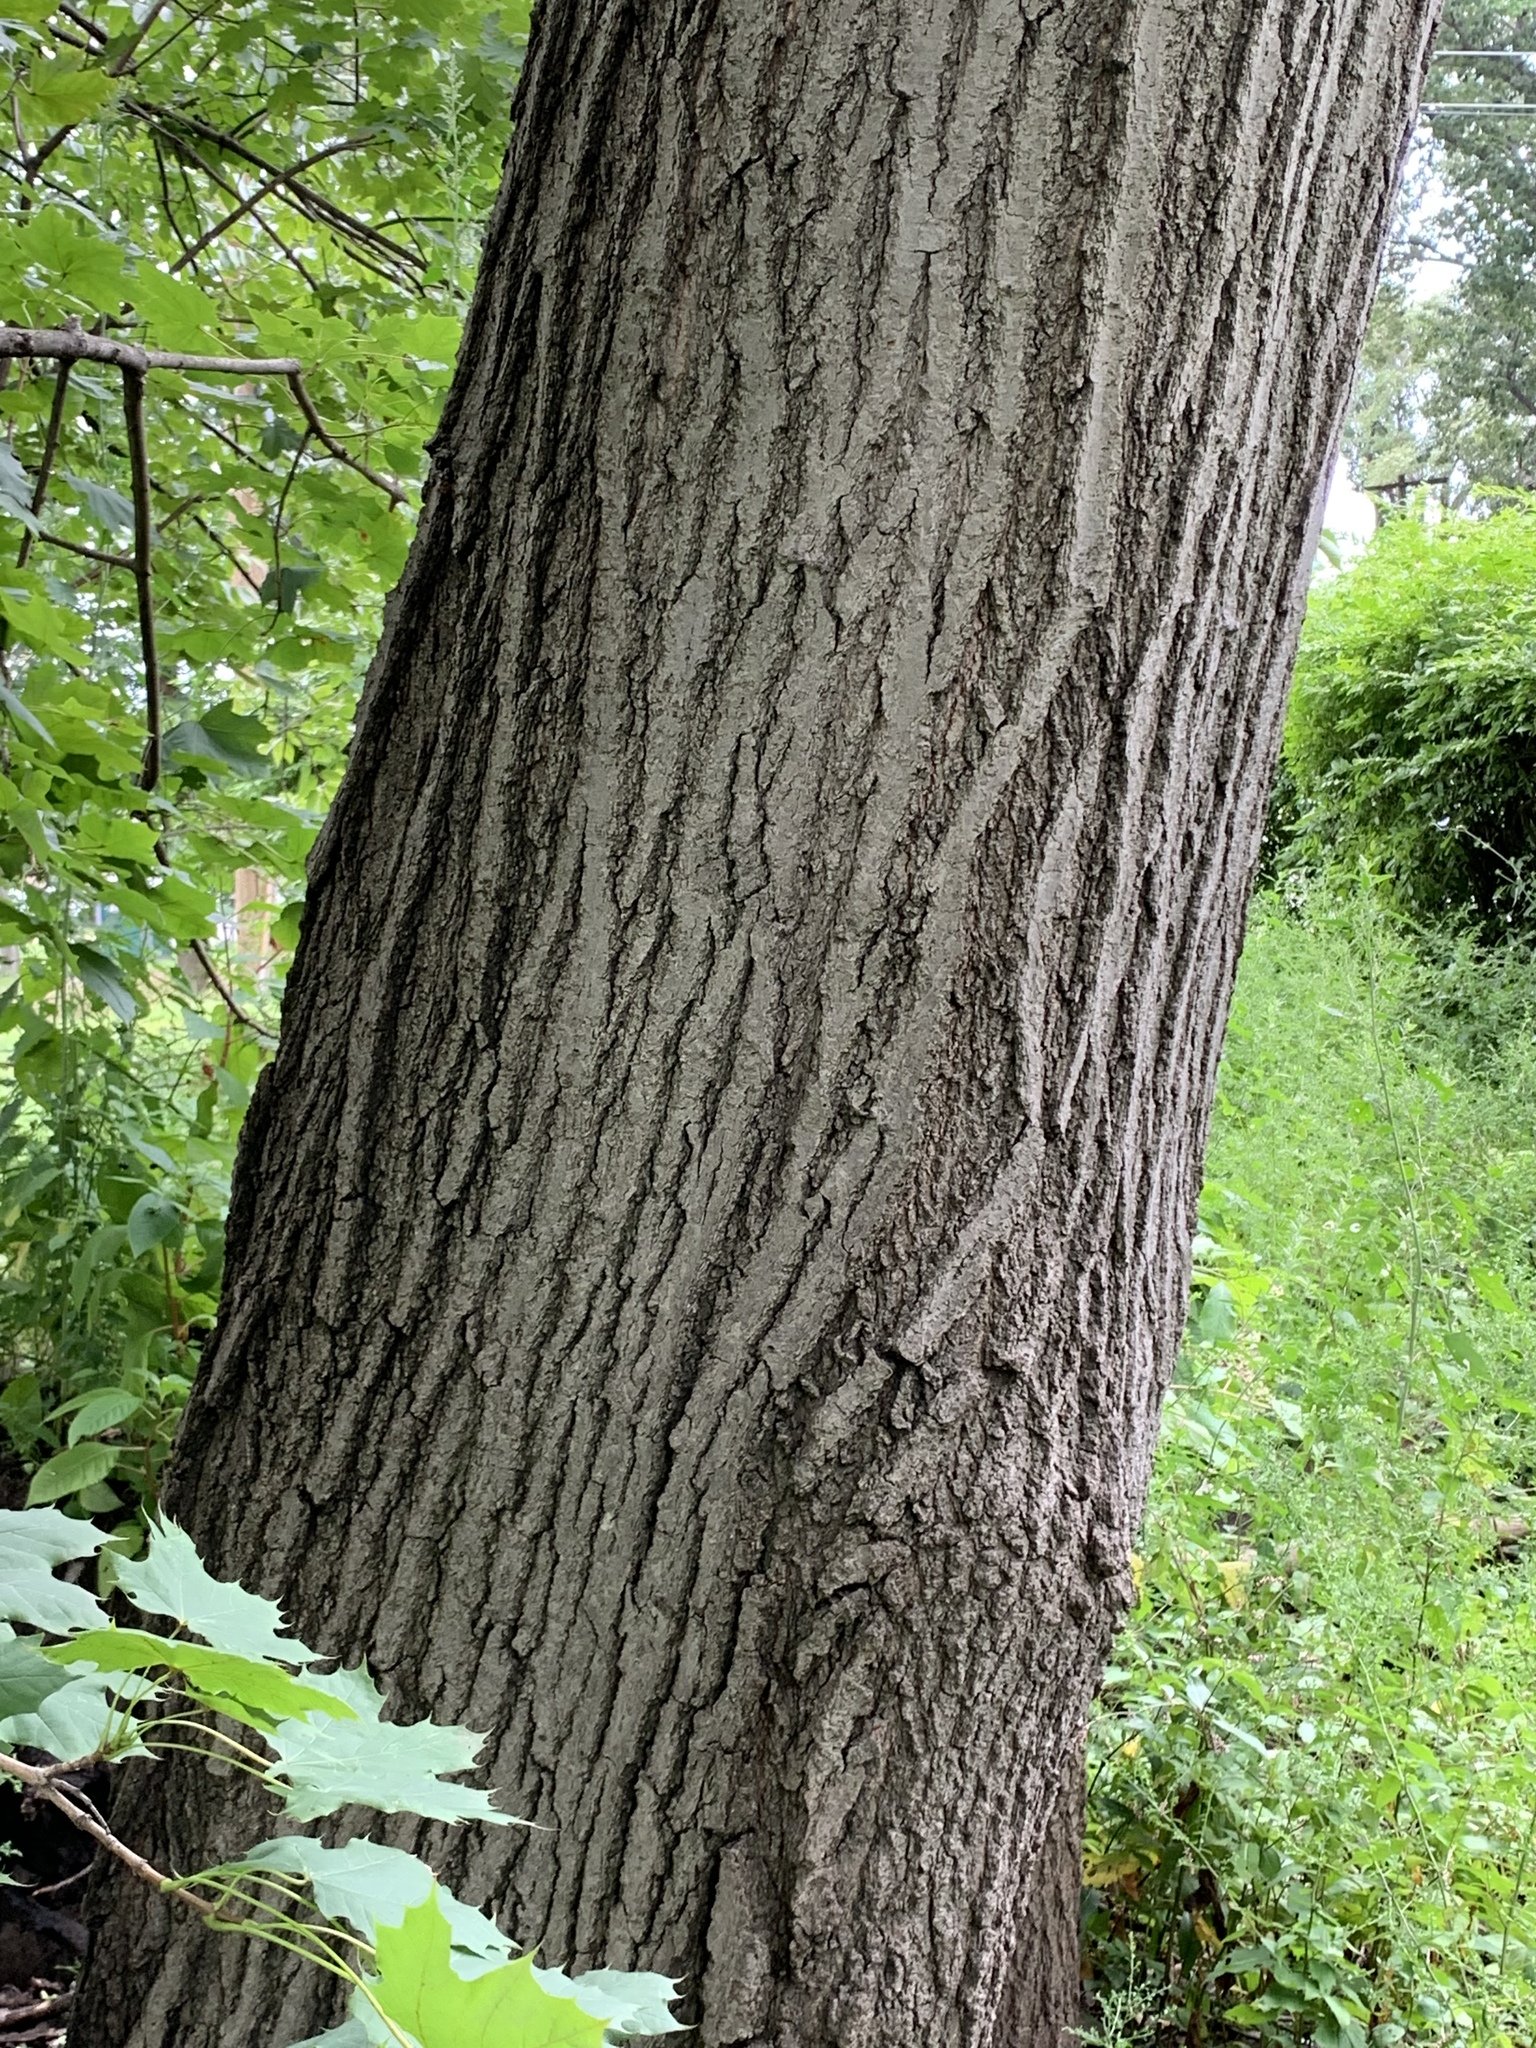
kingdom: Plantae
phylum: Tracheophyta
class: Magnoliopsida
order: Fagales
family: Fagaceae
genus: Quercus
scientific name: Quercus rubra
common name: Red oak
